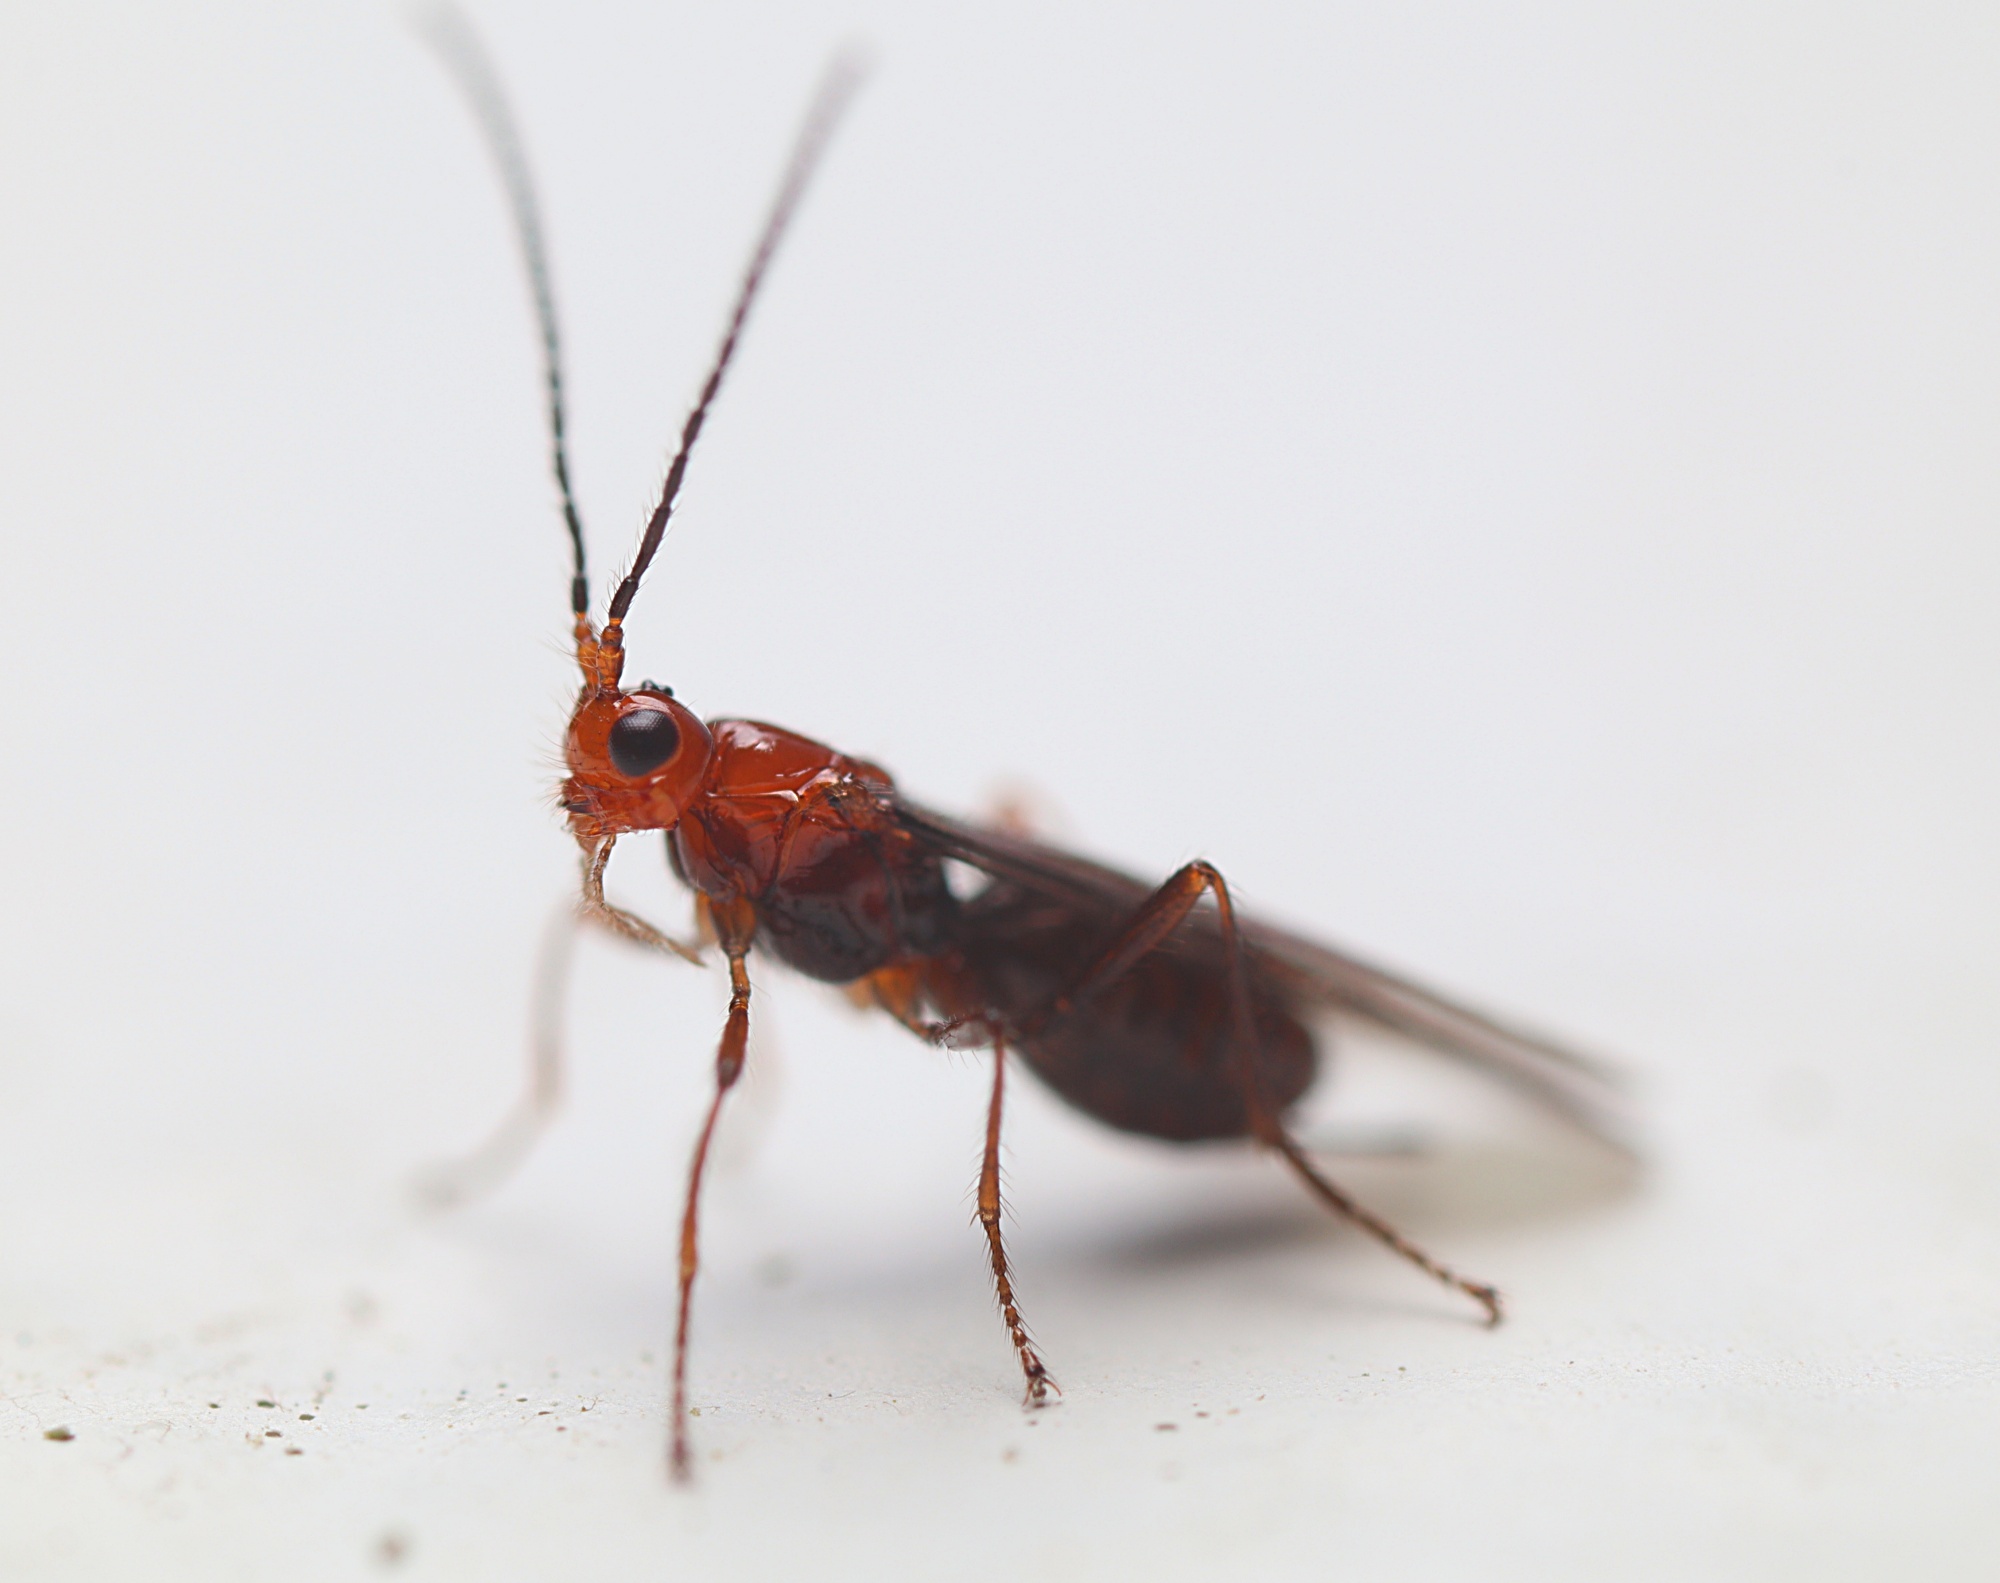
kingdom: Animalia
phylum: Arthropoda
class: Insecta
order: Hymenoptera
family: Braconidae
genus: Asobara
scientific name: Asobara antipoda
